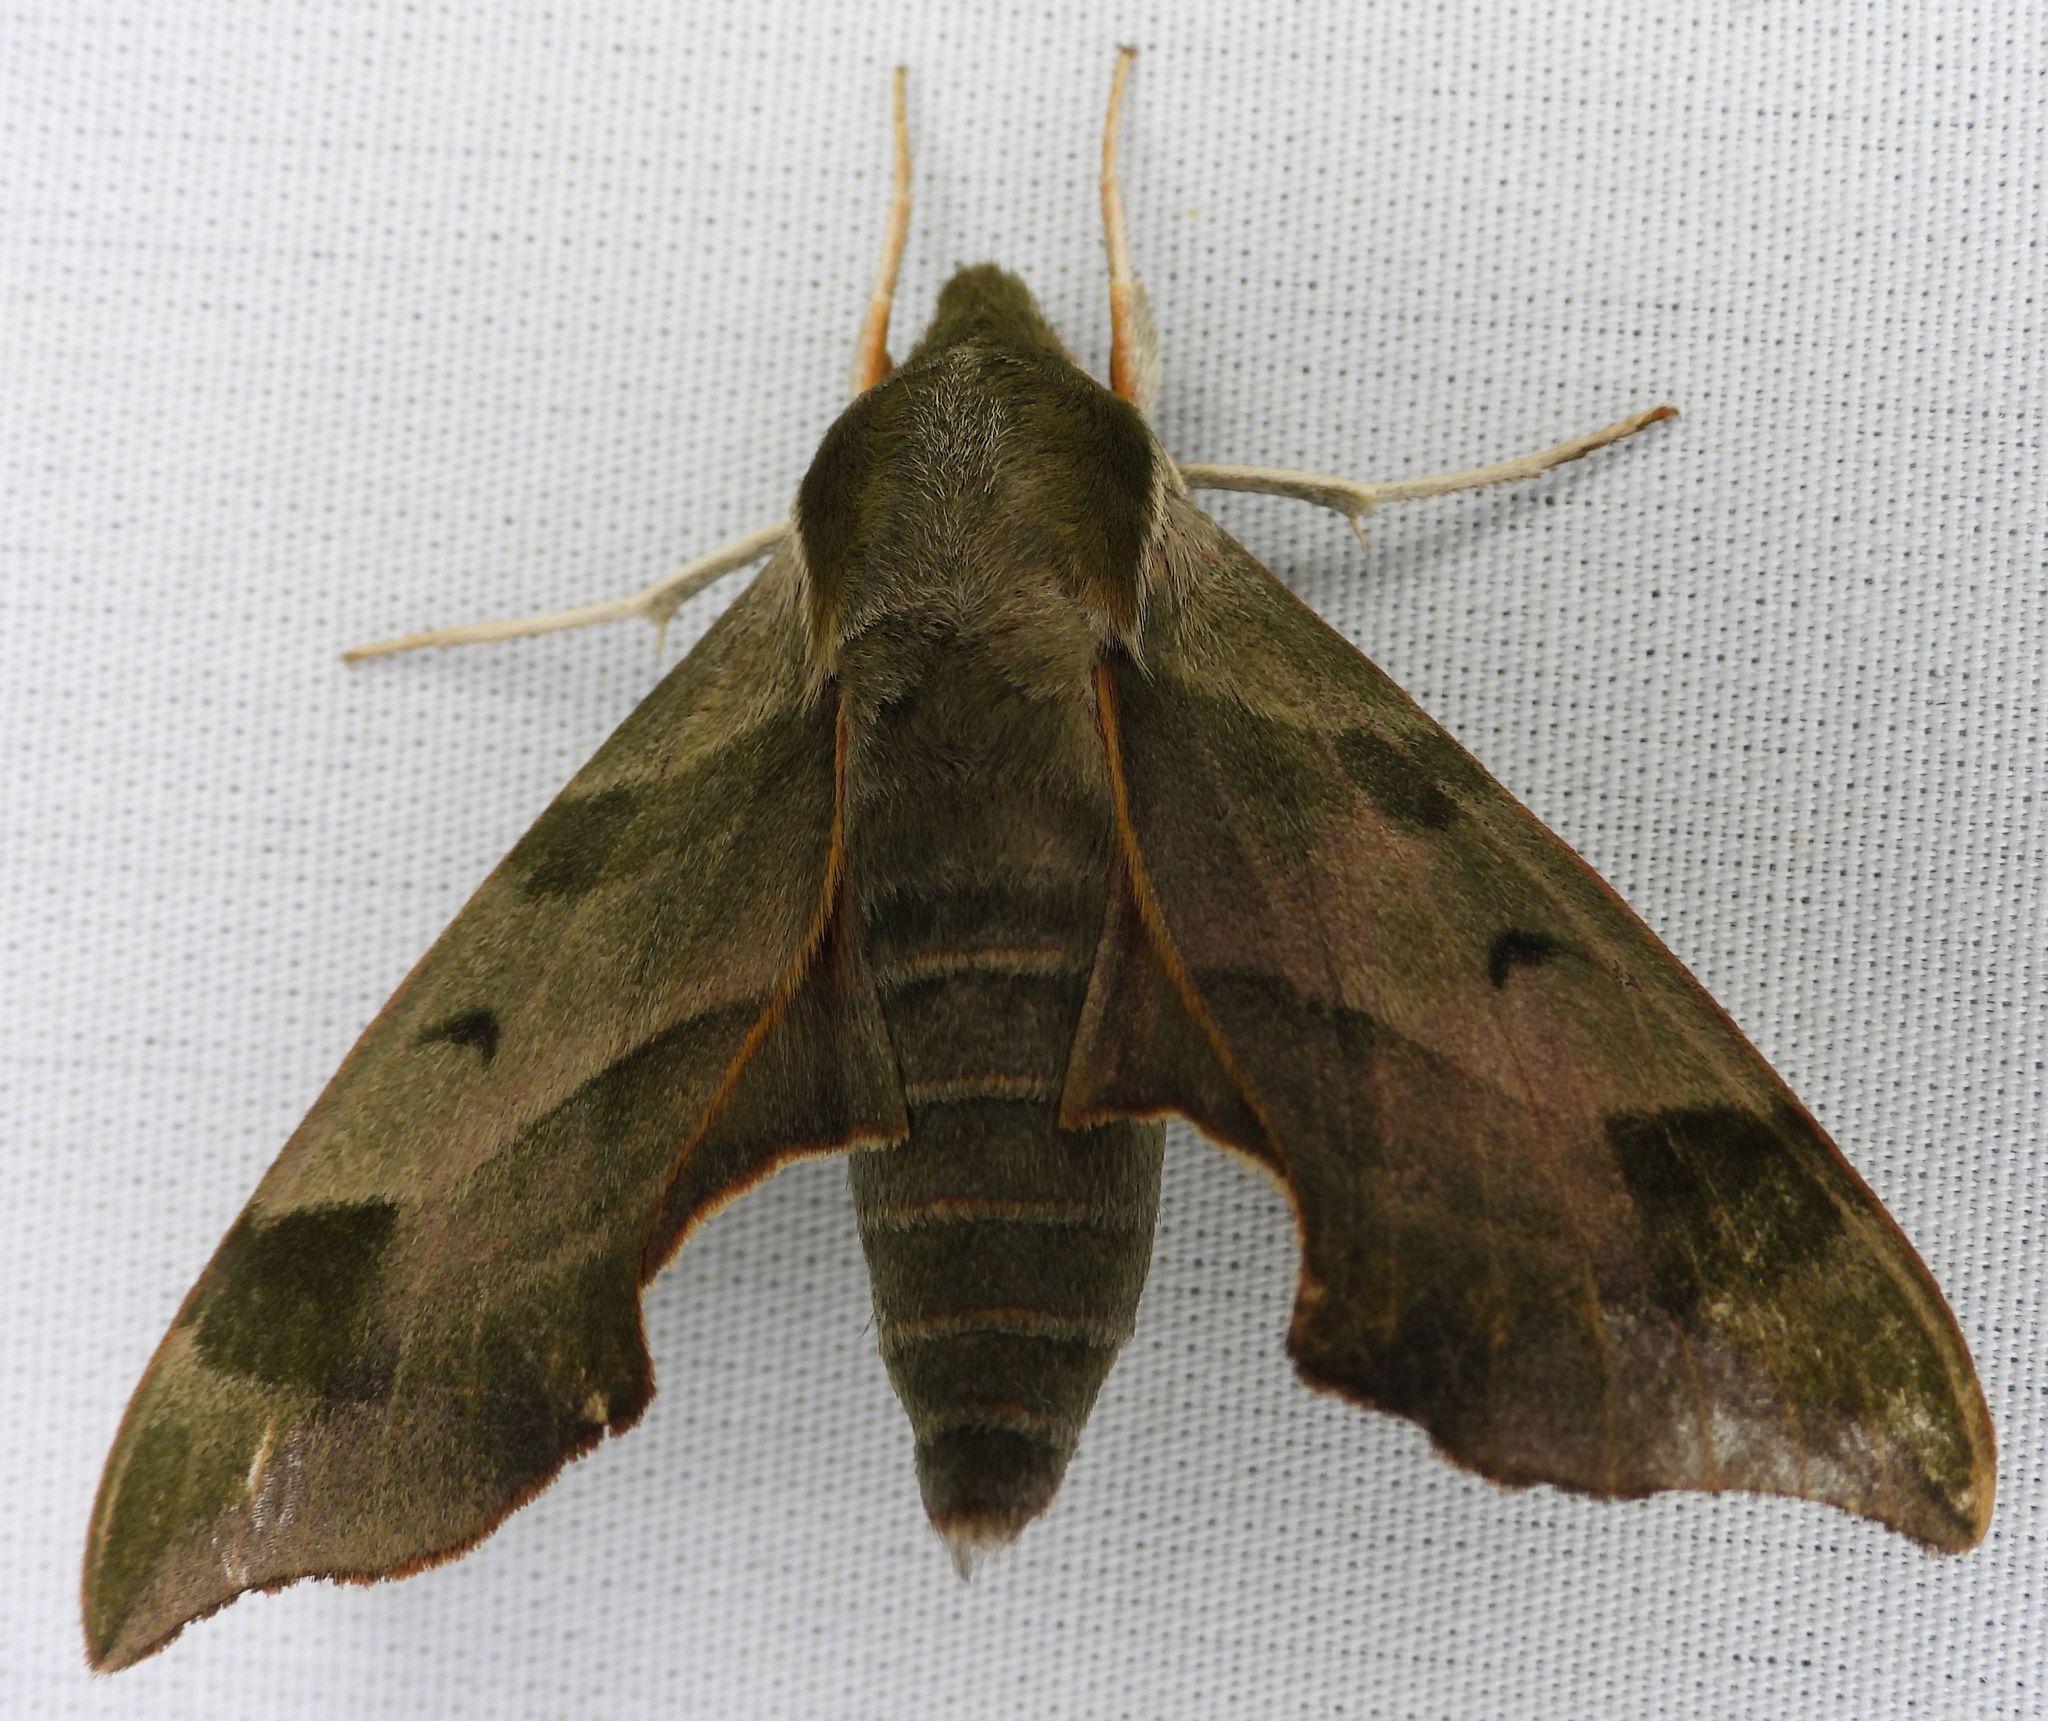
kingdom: Animalia
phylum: Arthropoda
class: Insecta
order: Lepidoptera
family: Sphingidae
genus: Darapsa
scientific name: Darapsa myron
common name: Hog sphinx
